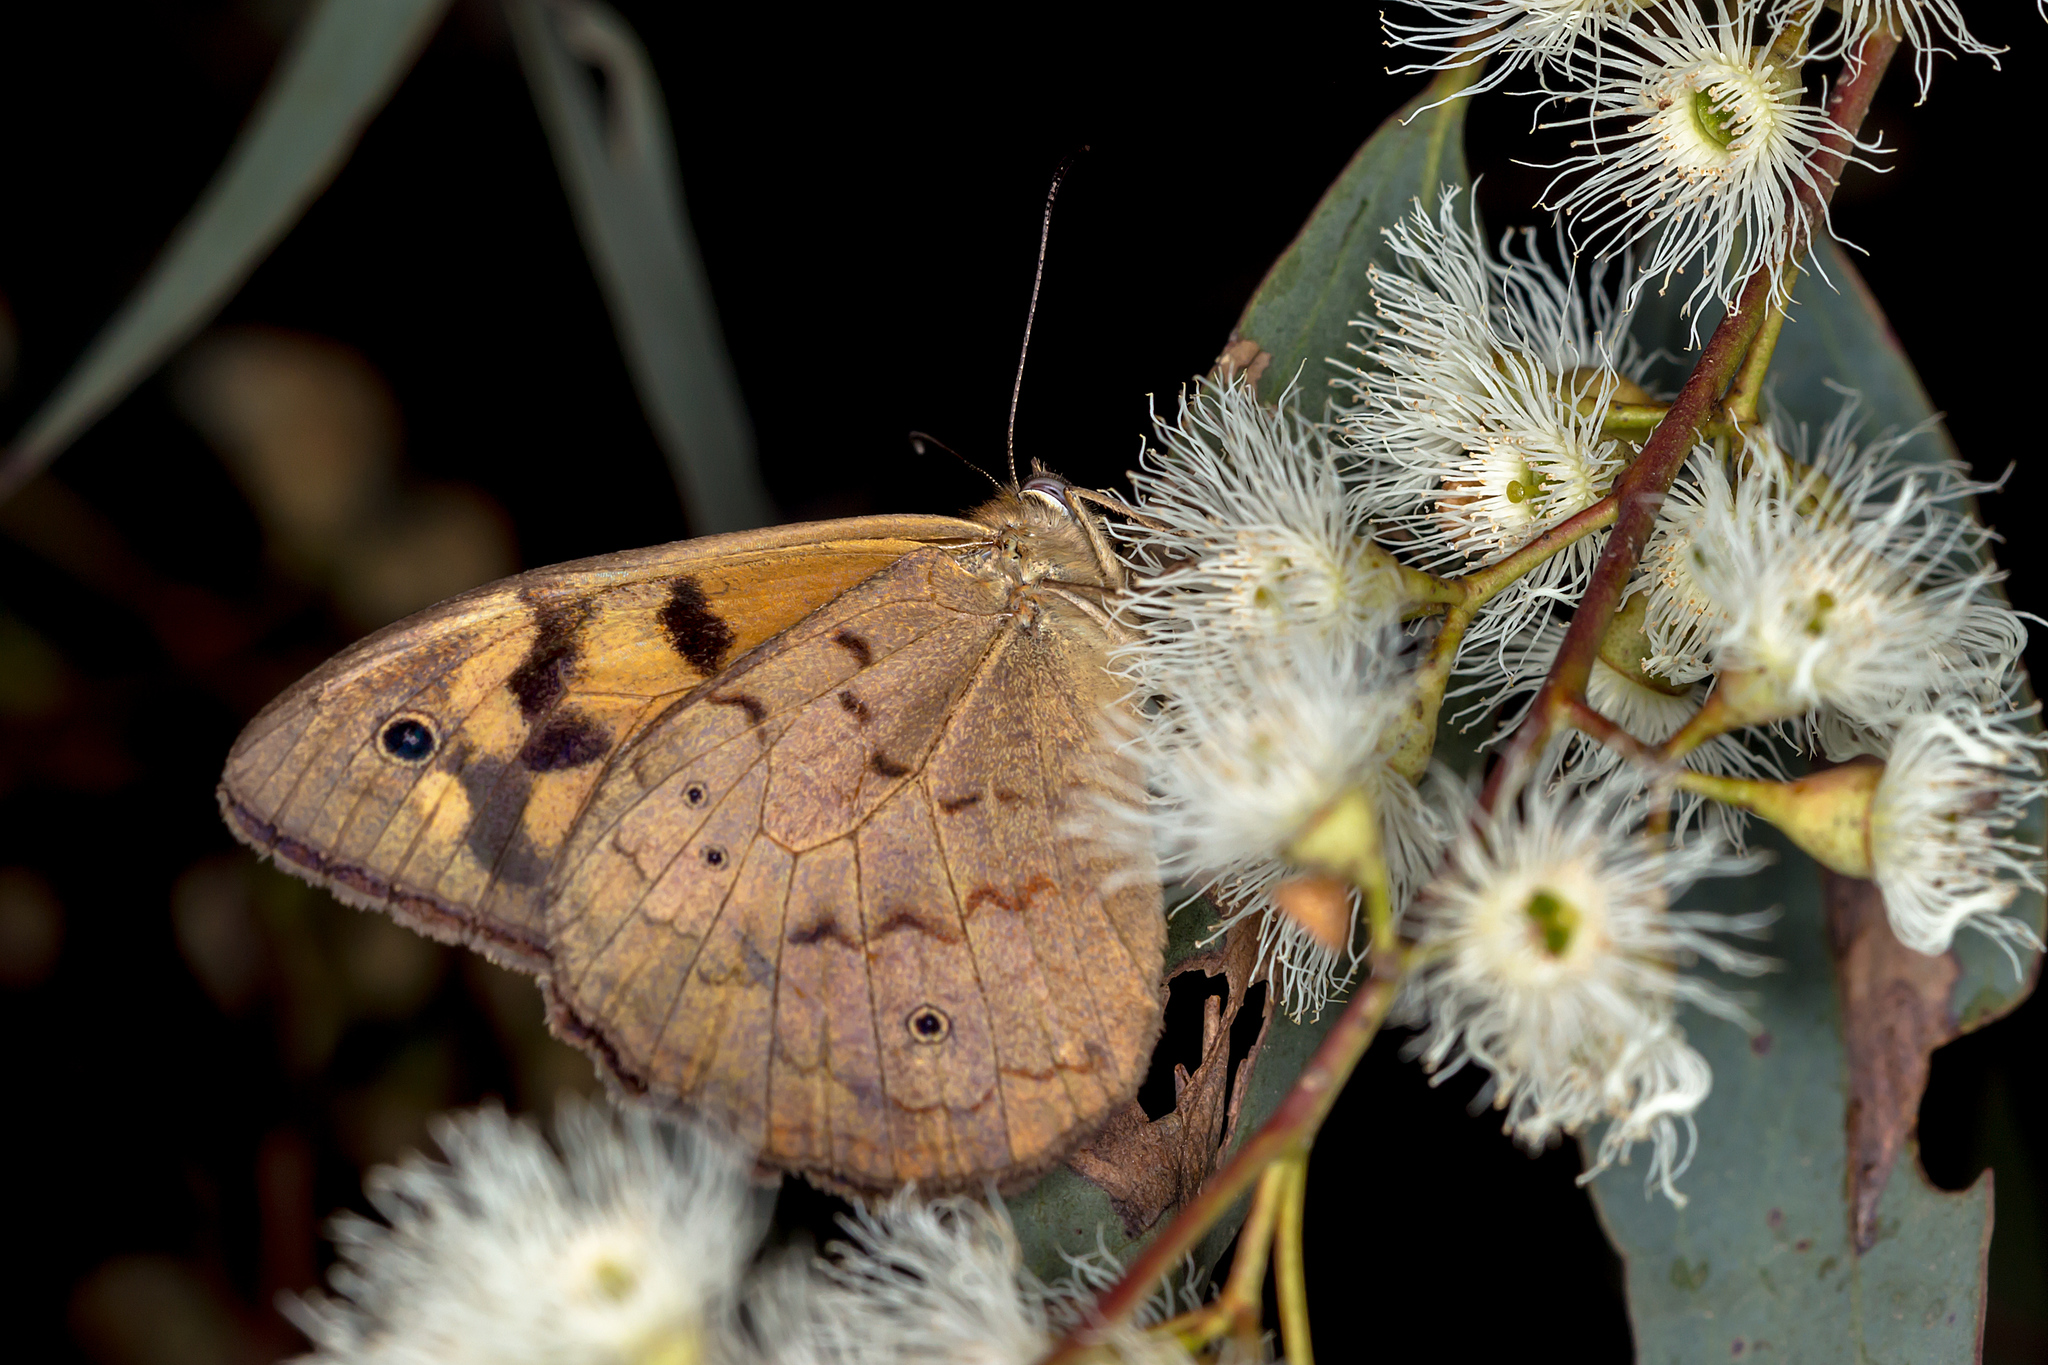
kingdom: Animalia
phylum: Arthropoda
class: Insecta
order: Lepidoptera
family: Nymphalidae
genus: Heteronympha
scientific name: Heteronympha merope
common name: Common brown
